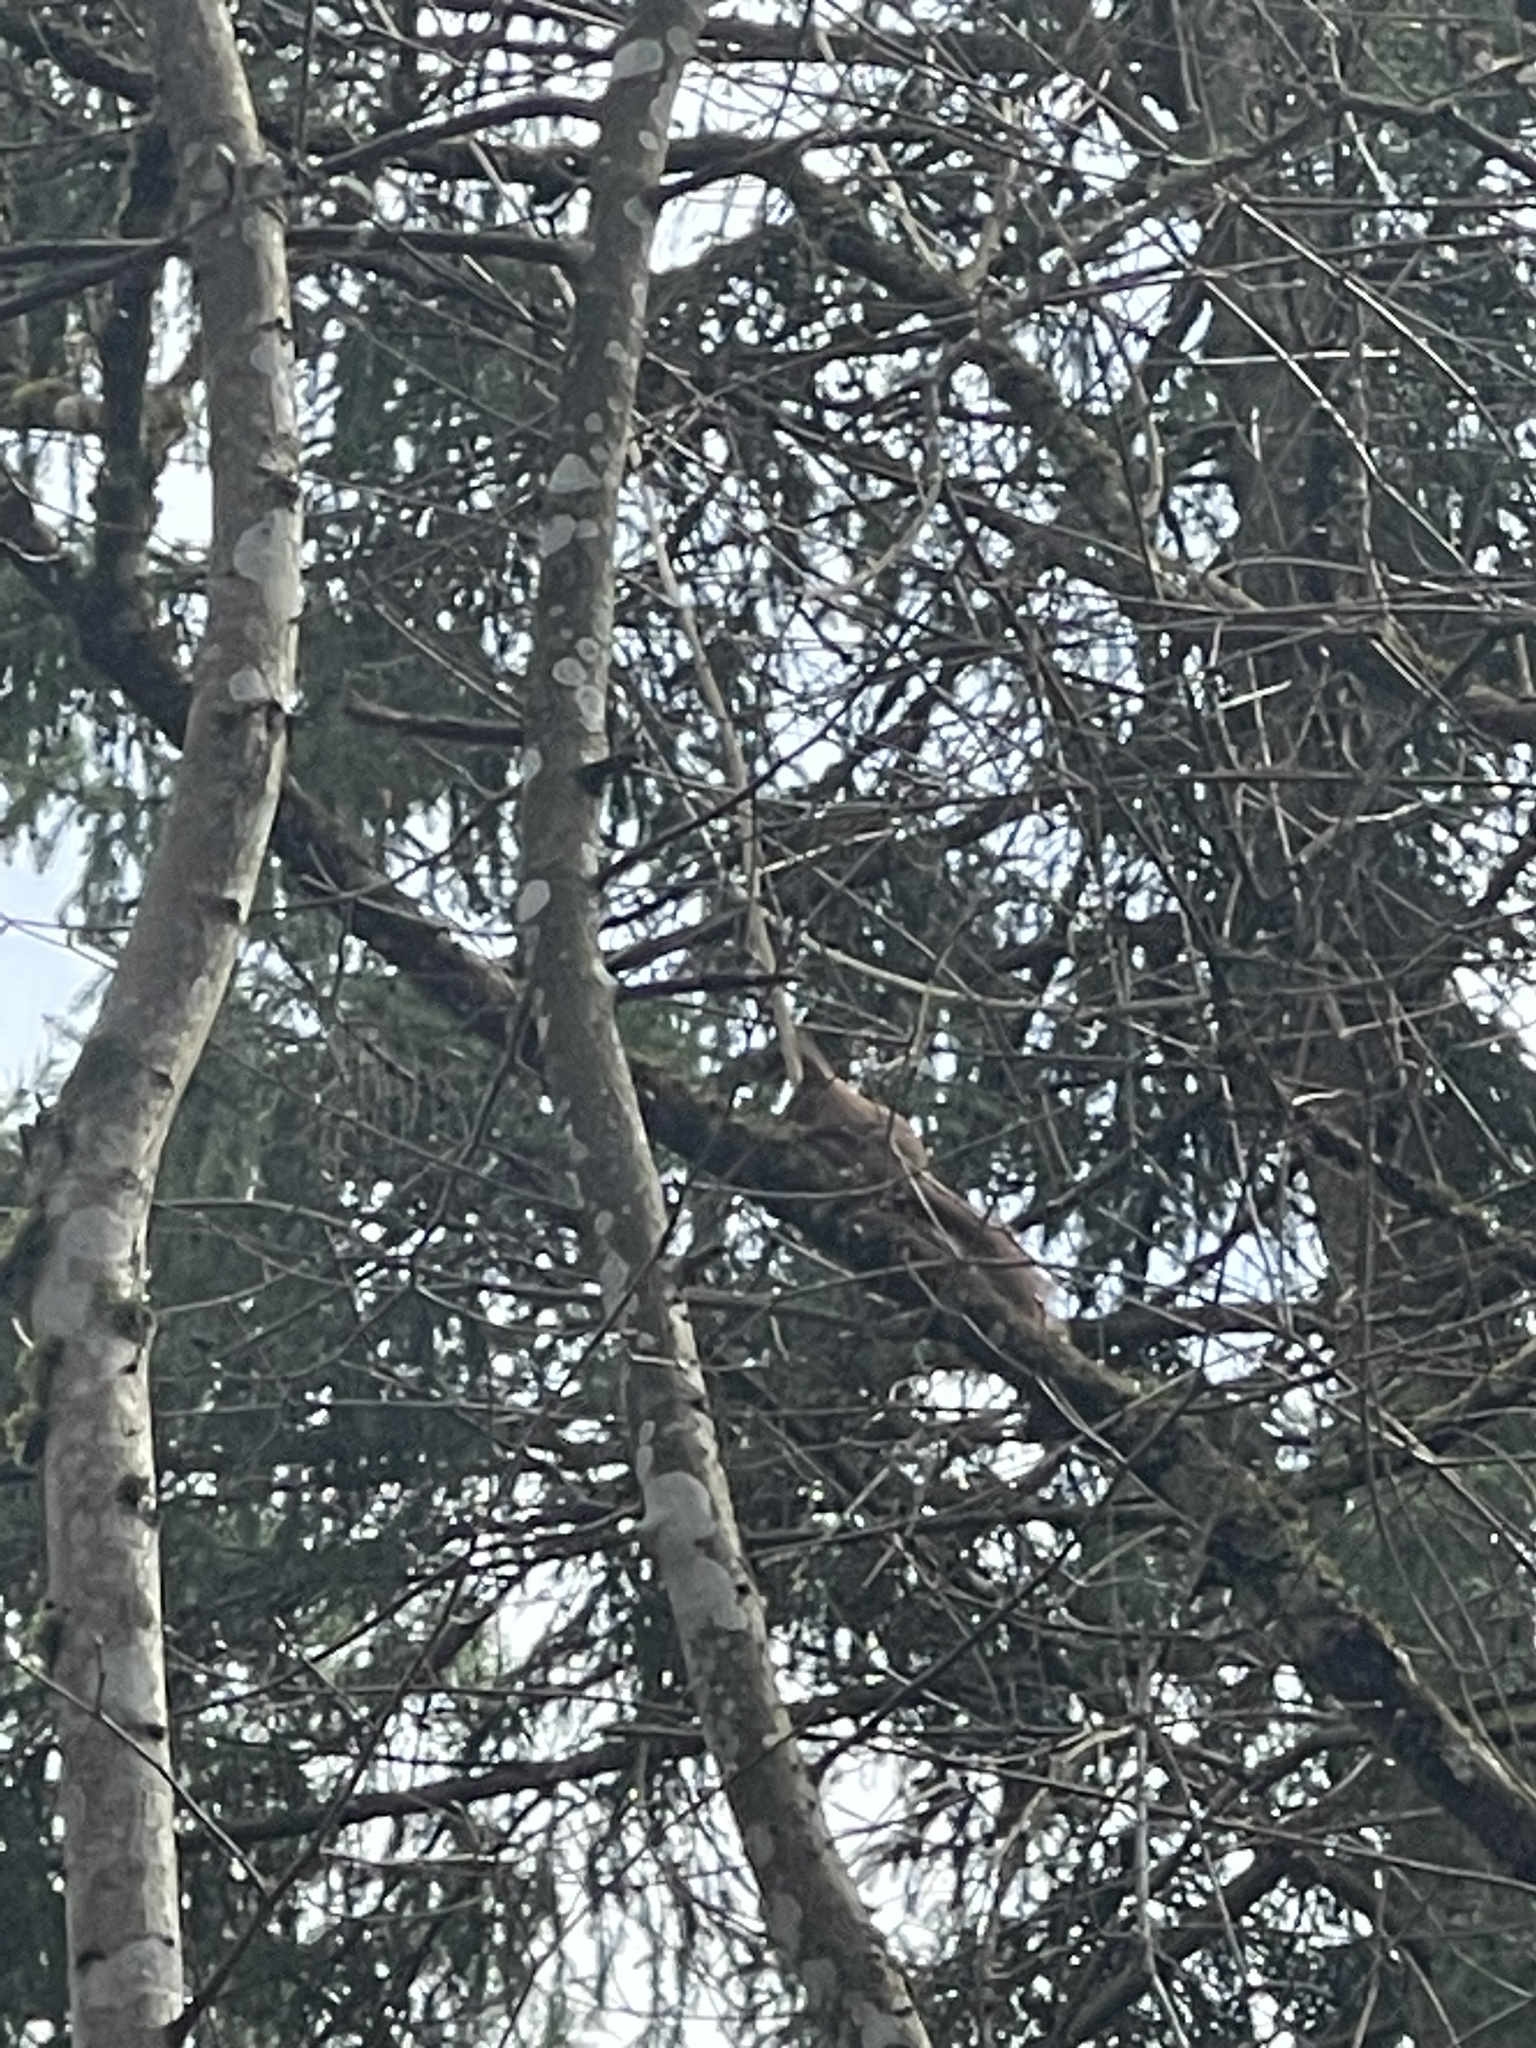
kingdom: Animalia
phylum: Chordata
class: Mammalia
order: Rodentia
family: Sciuridae
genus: Sciurus
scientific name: Sciurus vulgaris
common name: Eurasian red squirrel
